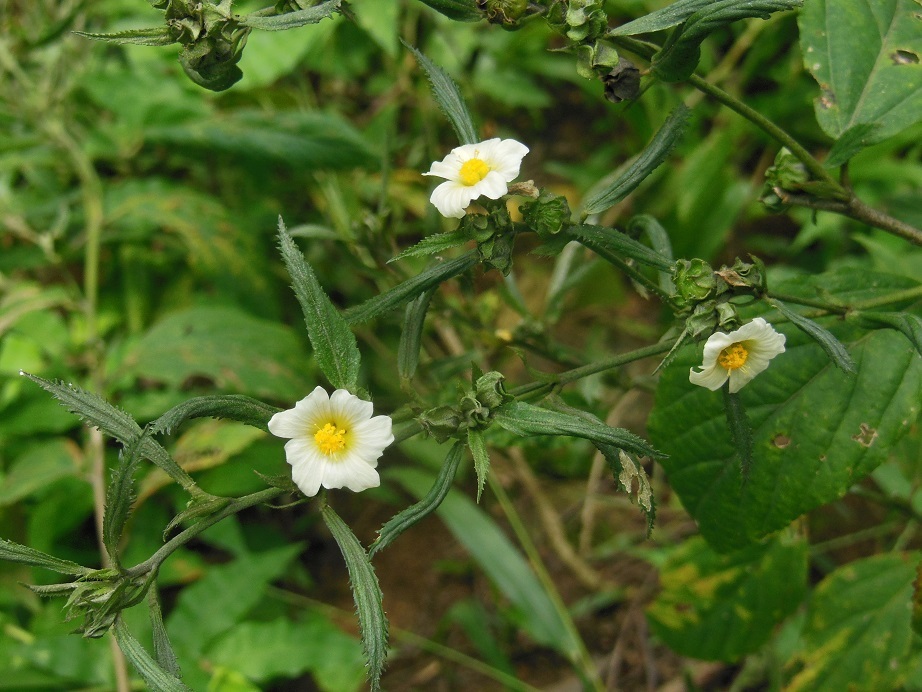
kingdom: Plantae
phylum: Tracheophyta
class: Magnoliopsida
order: Malvales
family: Malvaceae
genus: Sida
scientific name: Sida rhombifolia
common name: Queensland-hemp
